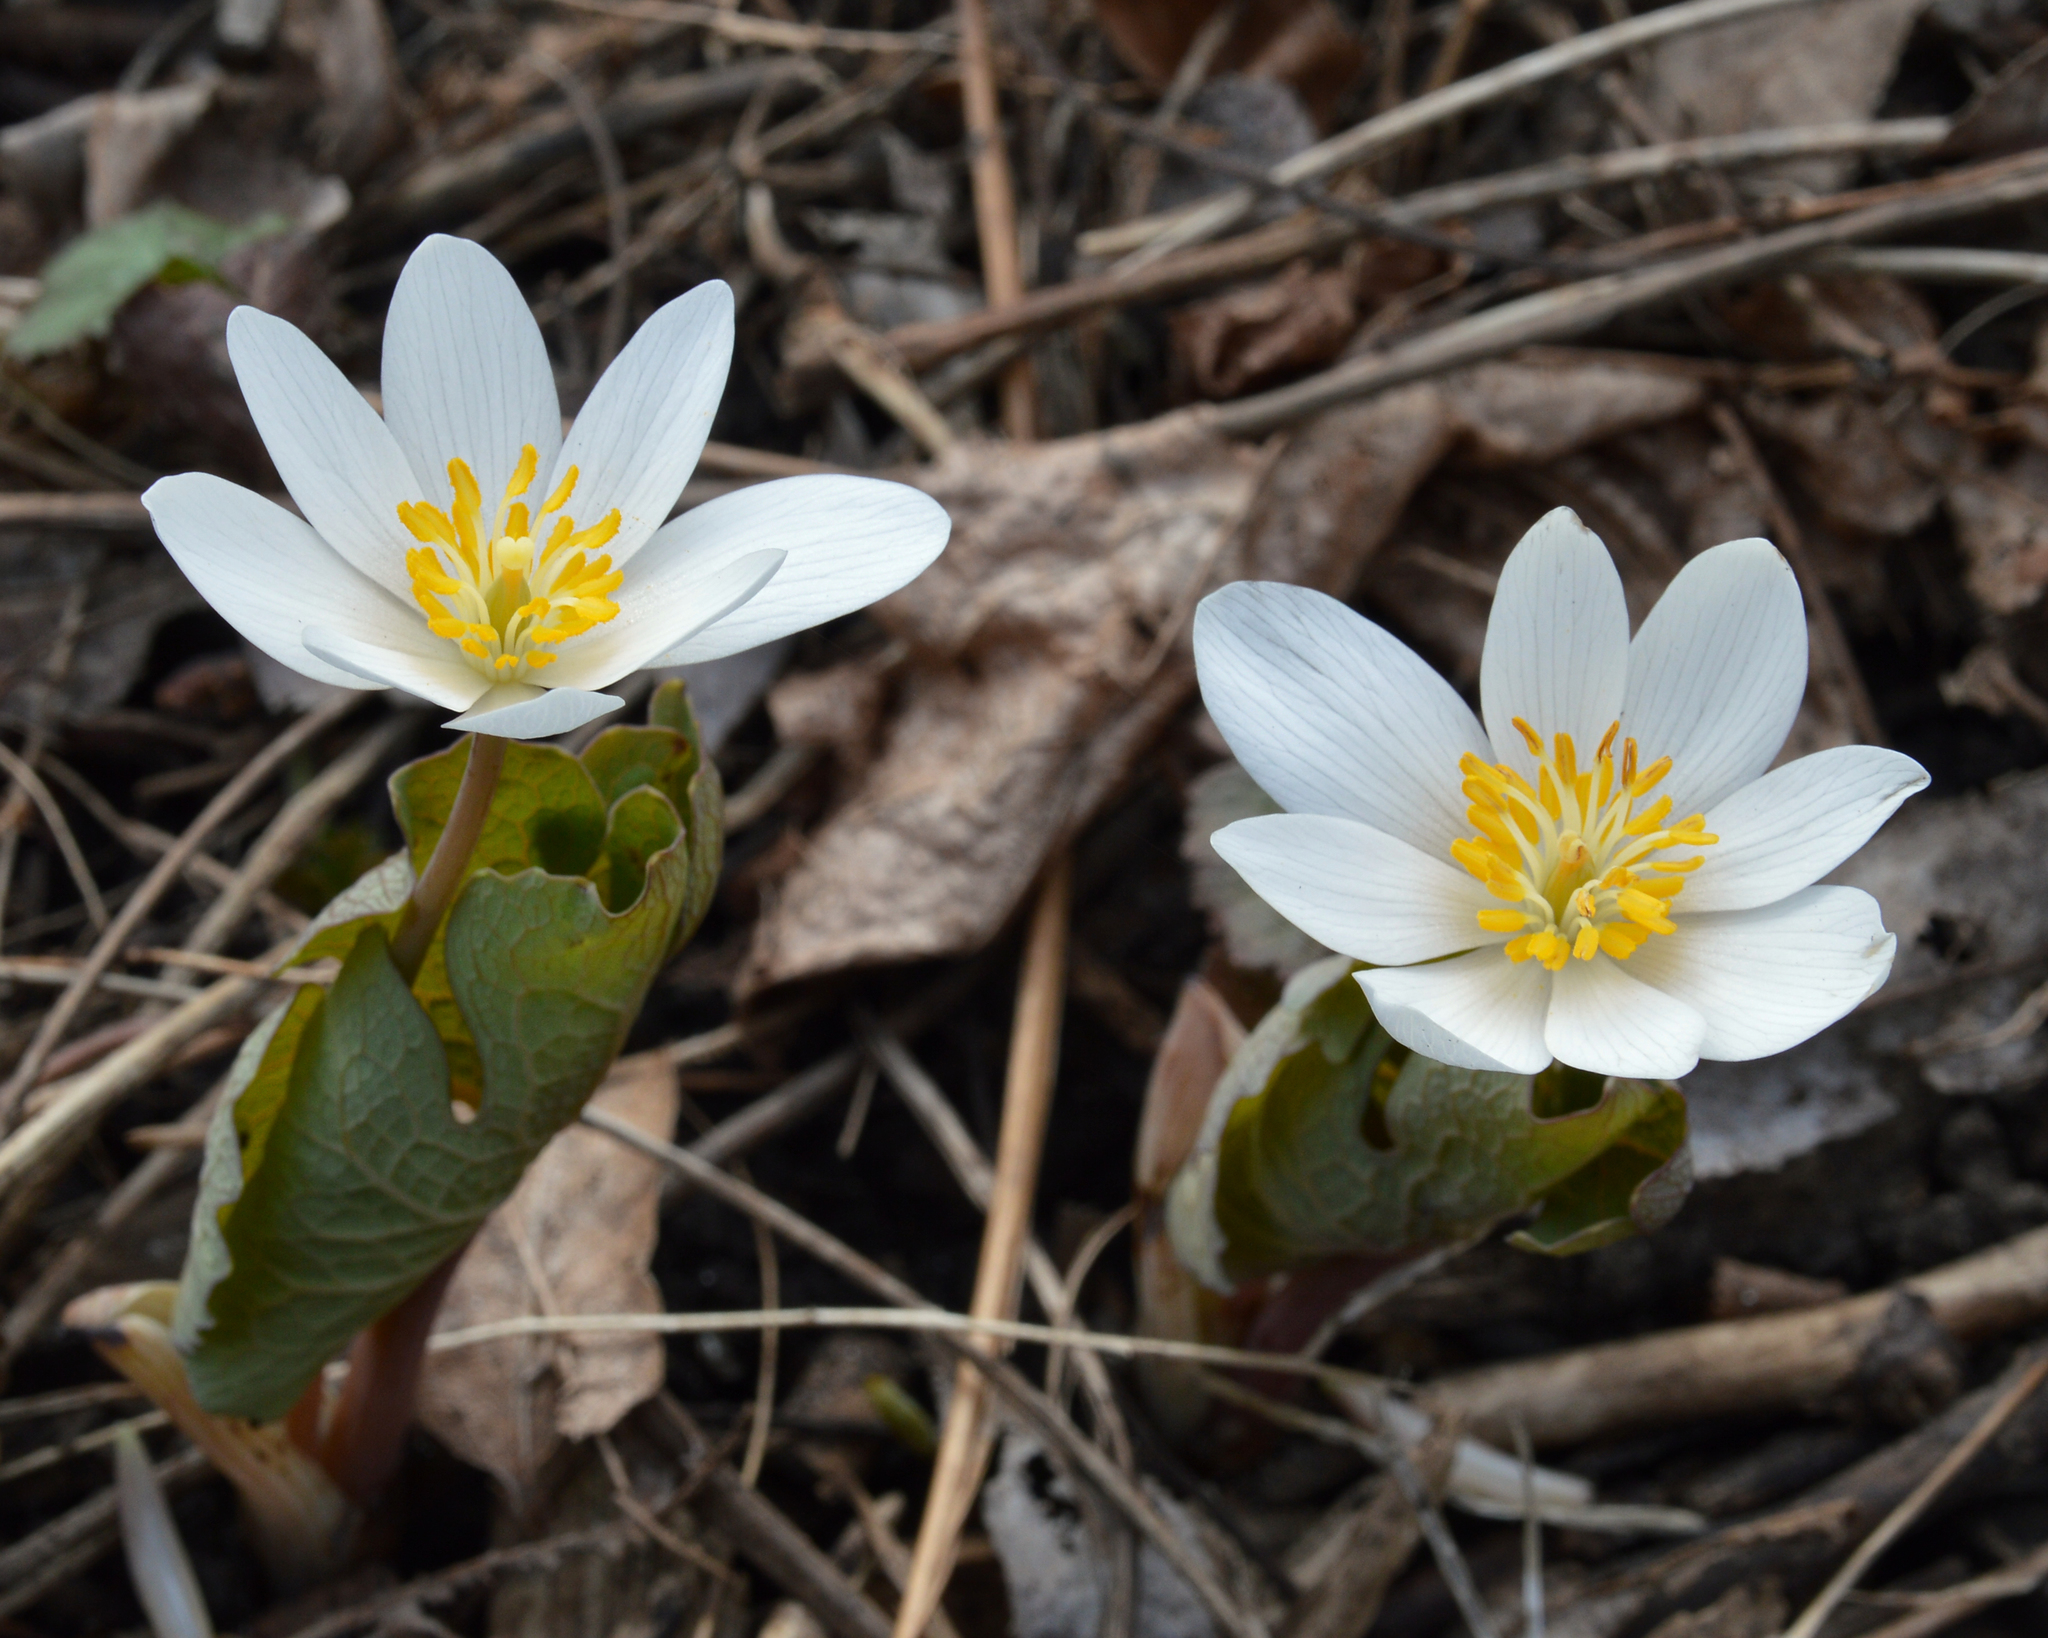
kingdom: Plantae
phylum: Tracheophyta
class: Magnoliopsida
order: Ranunculales
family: Papaveraceae
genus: Sanguinaria
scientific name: Sanguinaria canadensis
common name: Bloodroot
